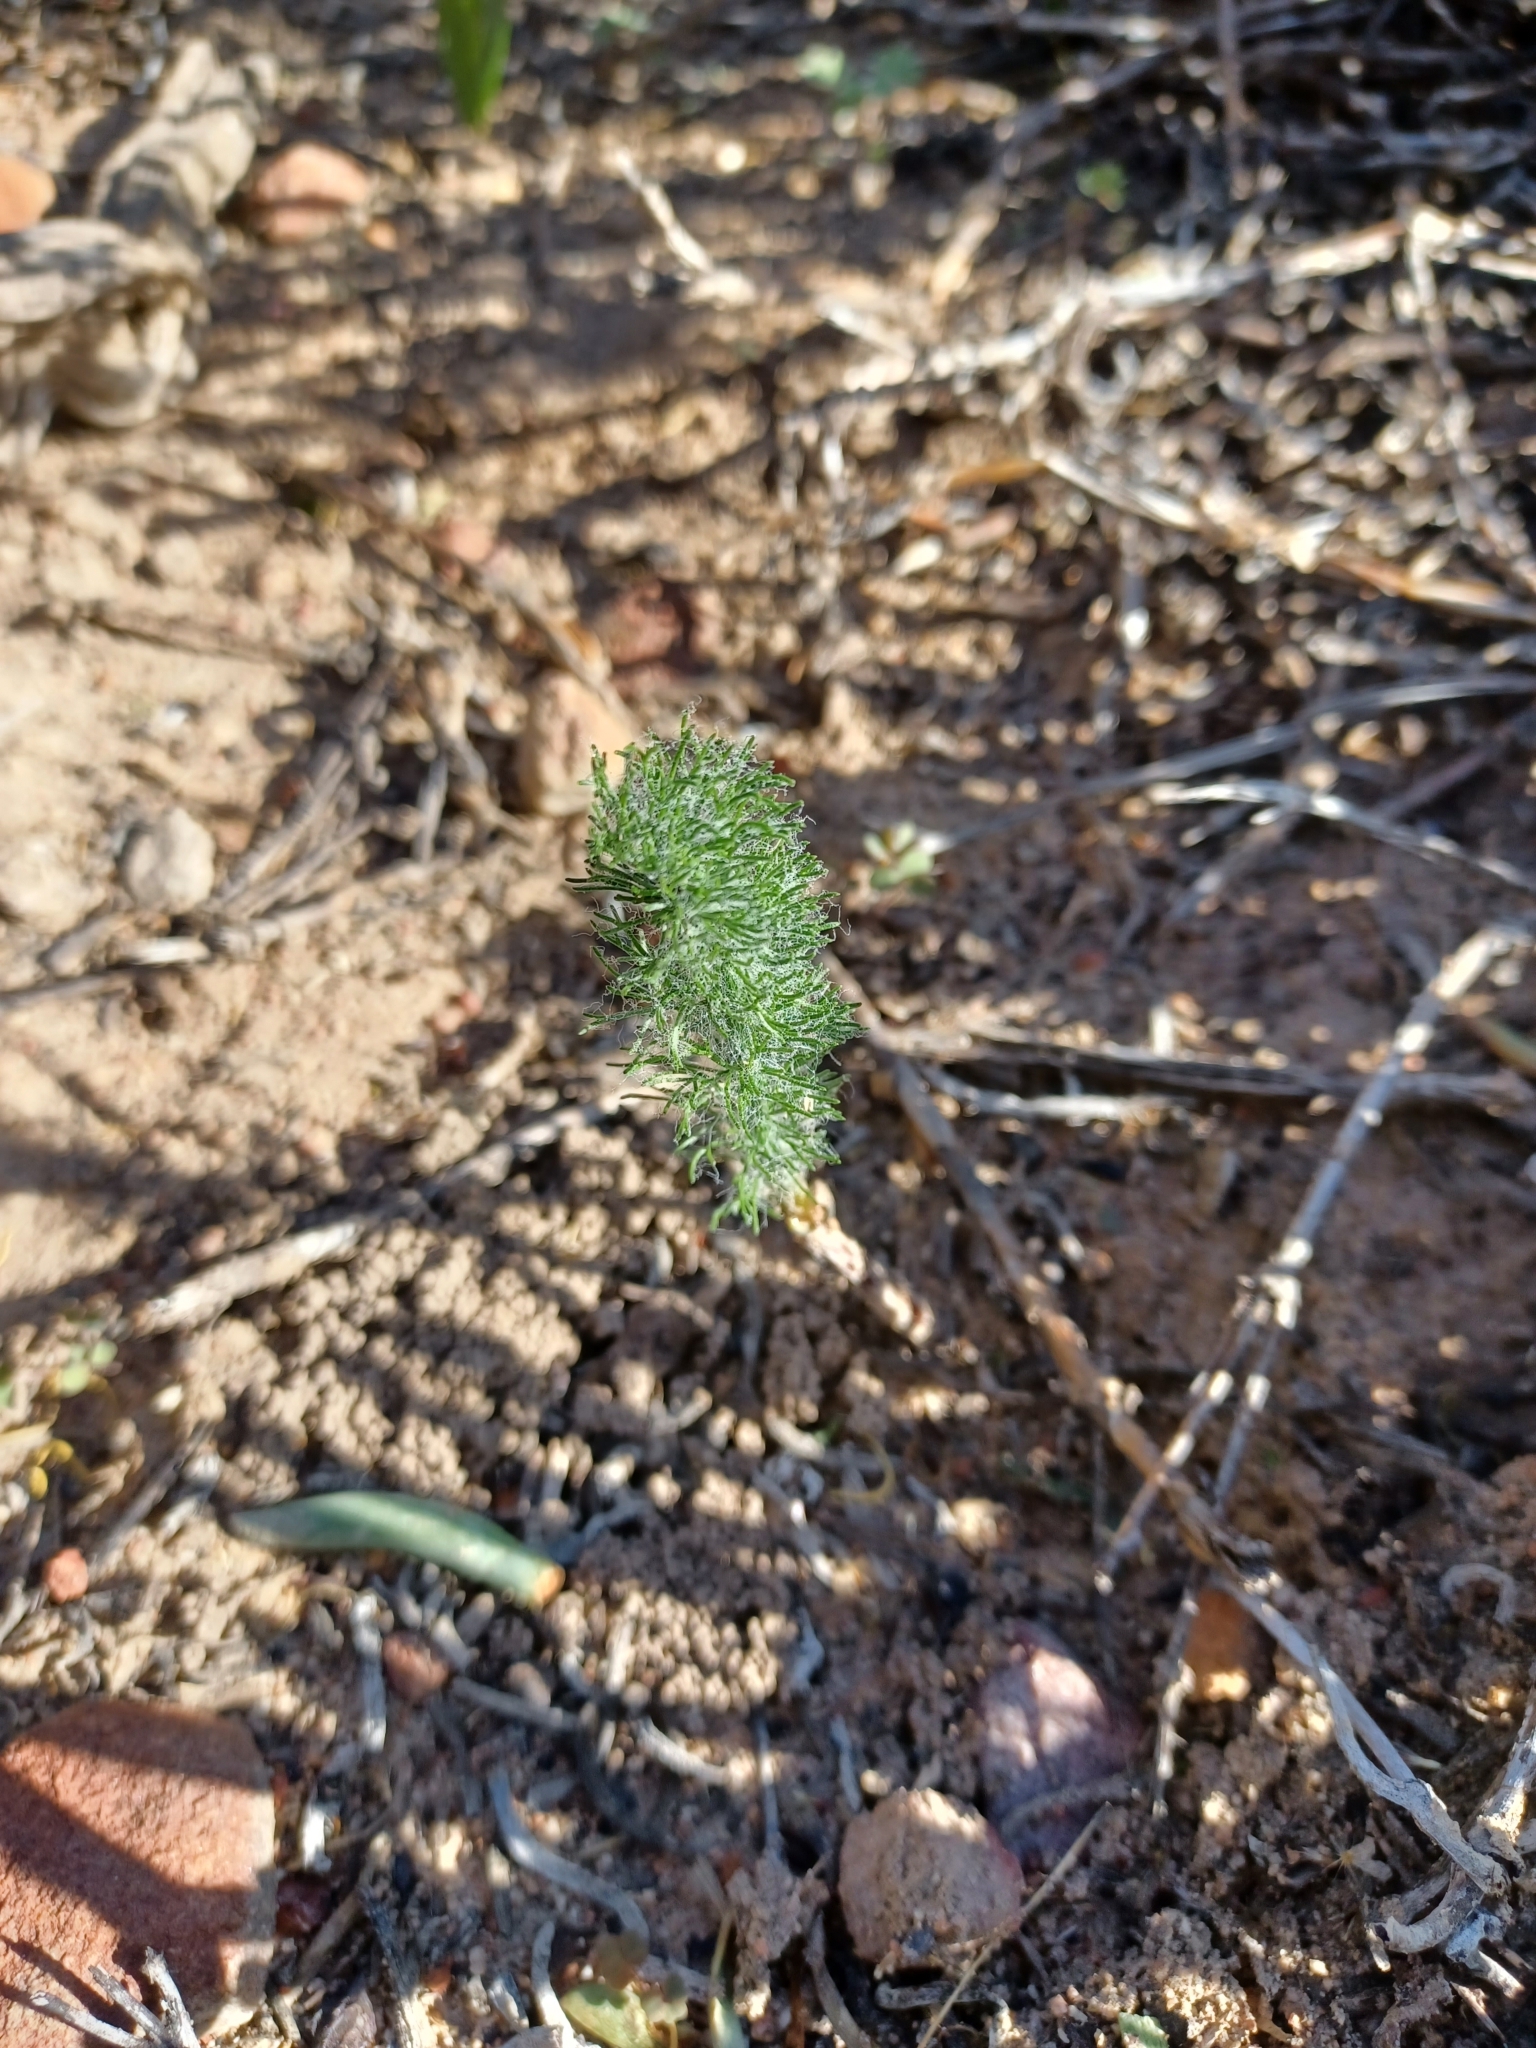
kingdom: Plantae
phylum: Tracheophyta
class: Liliopsida
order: Asparagales
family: Asparagaceae
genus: Eriospermum
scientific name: Eriospermum paradoxum
